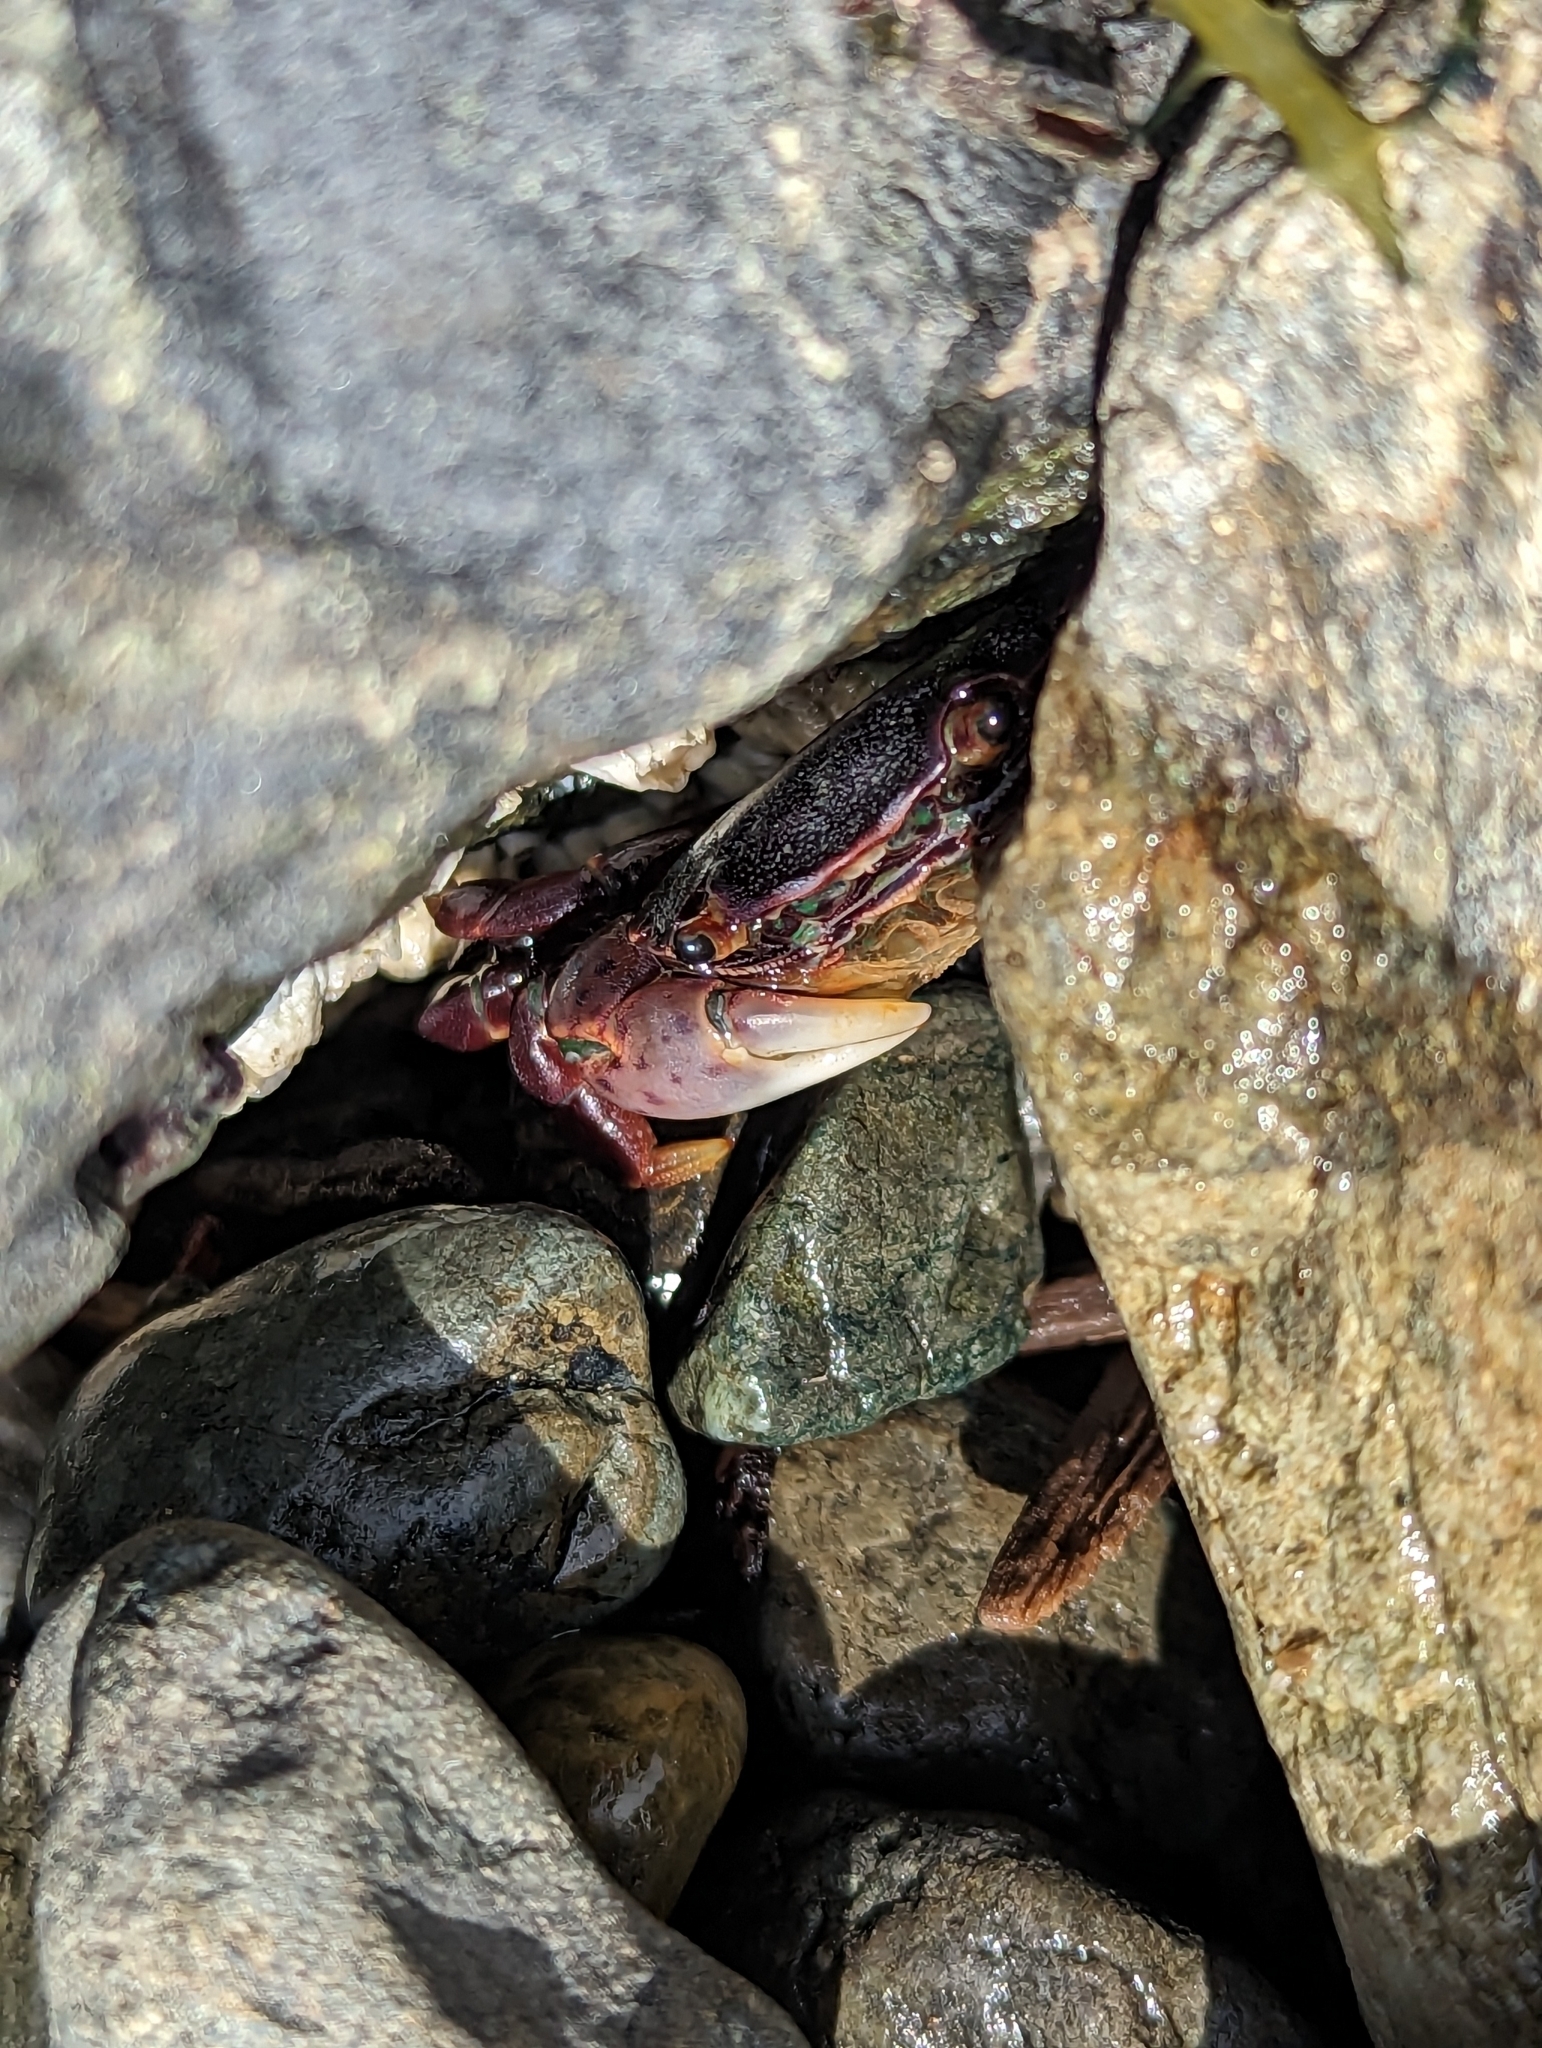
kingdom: Animalia
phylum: Arthropoda
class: Malacostraca
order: Decapoda
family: Varunidae
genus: Hemigrapsus
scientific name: Hemigrapsus nudus
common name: Purple shore crab
